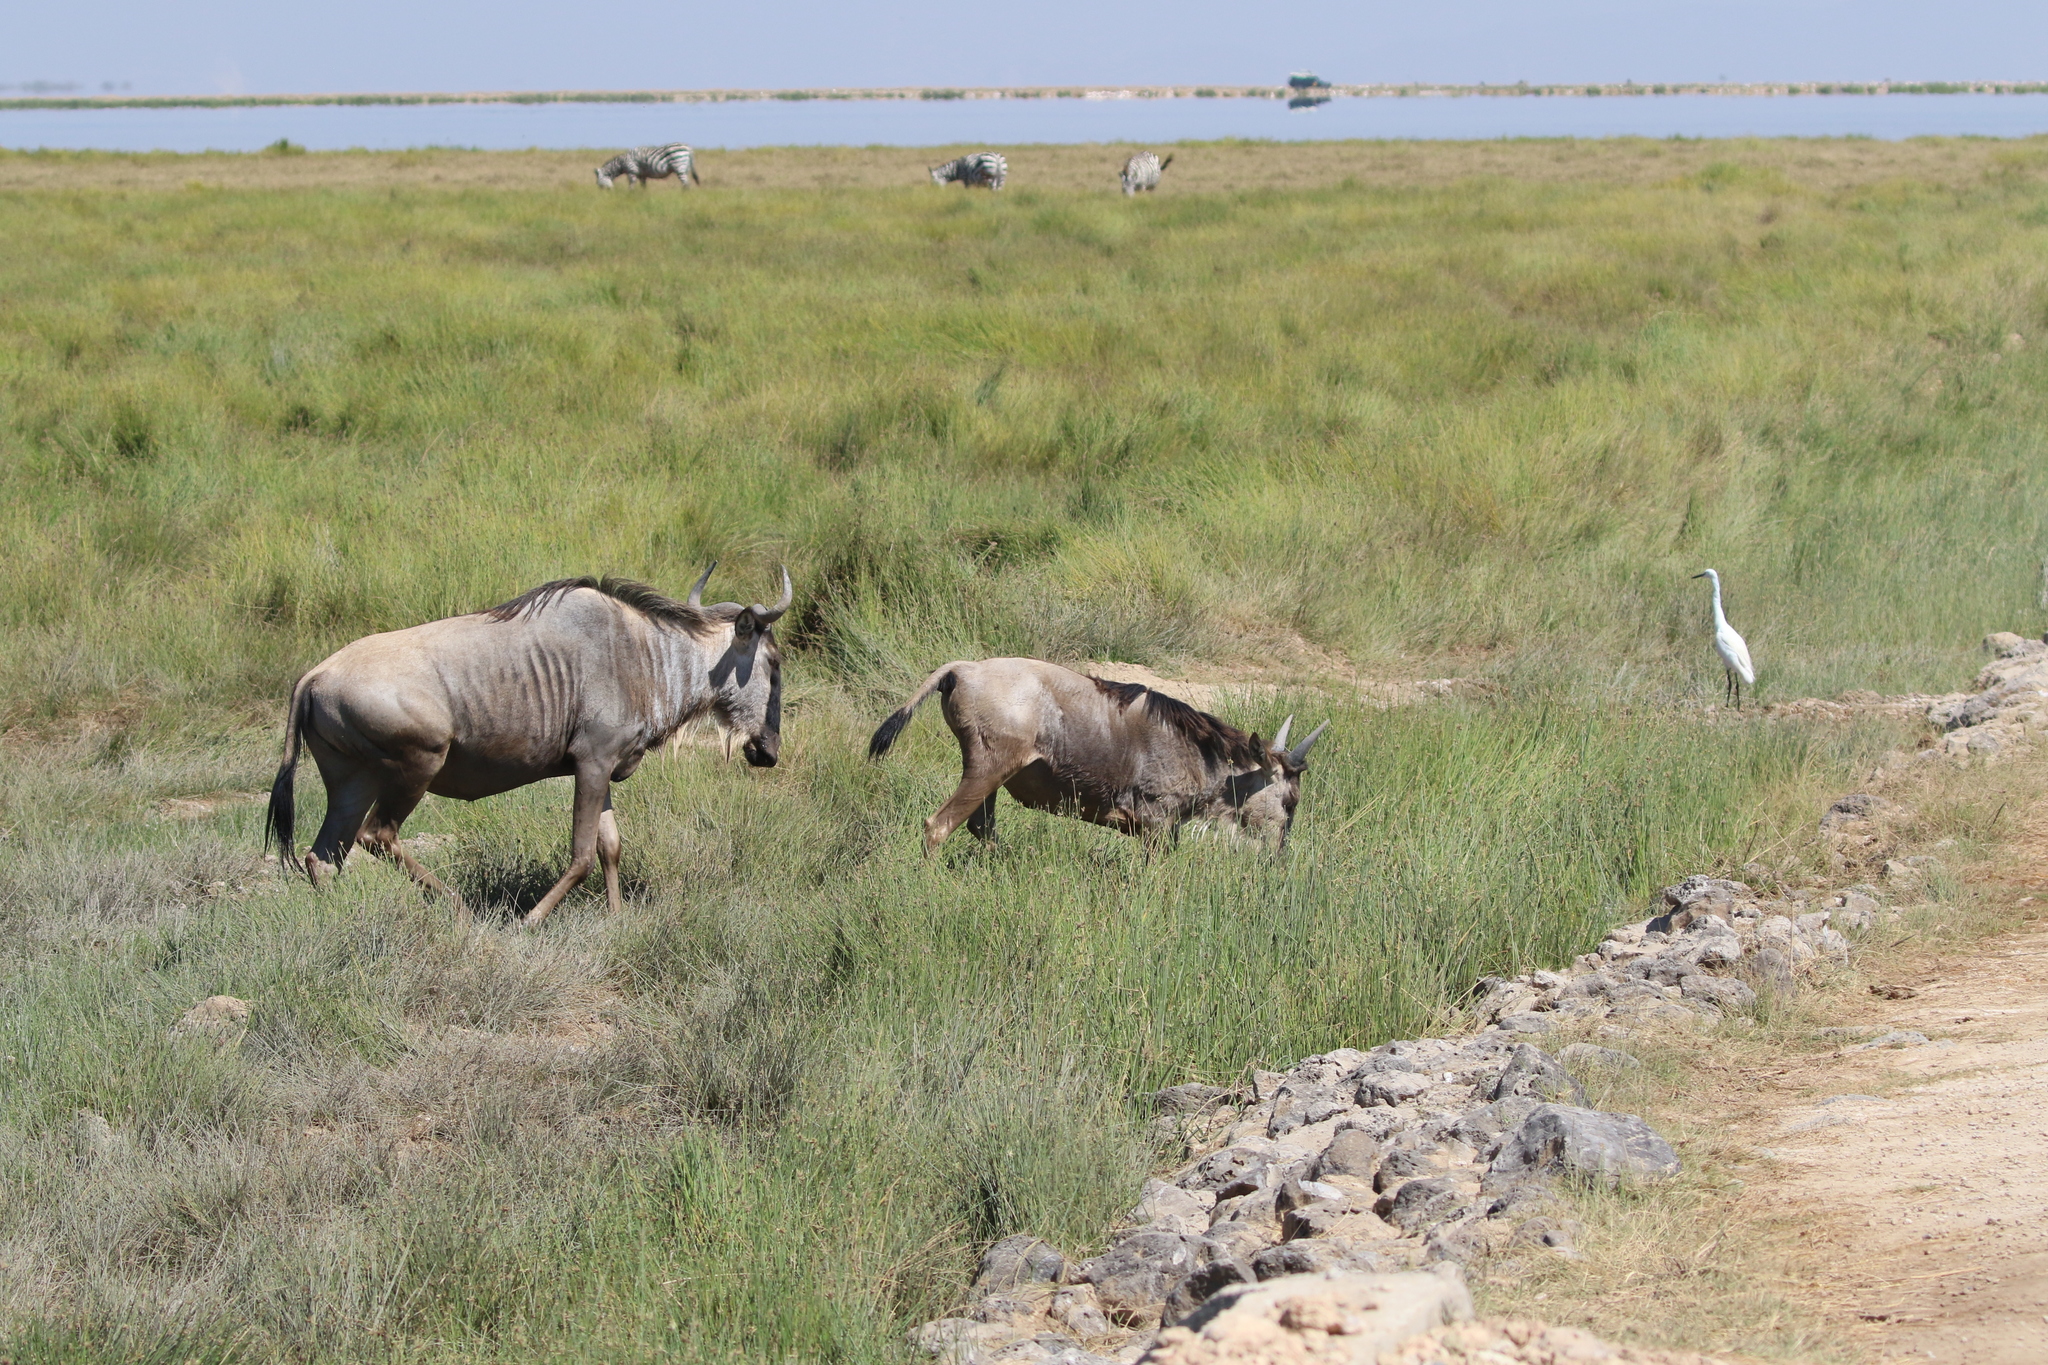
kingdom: Animalia
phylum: Chordata
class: Mammalia
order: Artiodactyla
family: Bovidae
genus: Connochaetes
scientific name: Connochaetes taurinus
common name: Blue wildebeest
